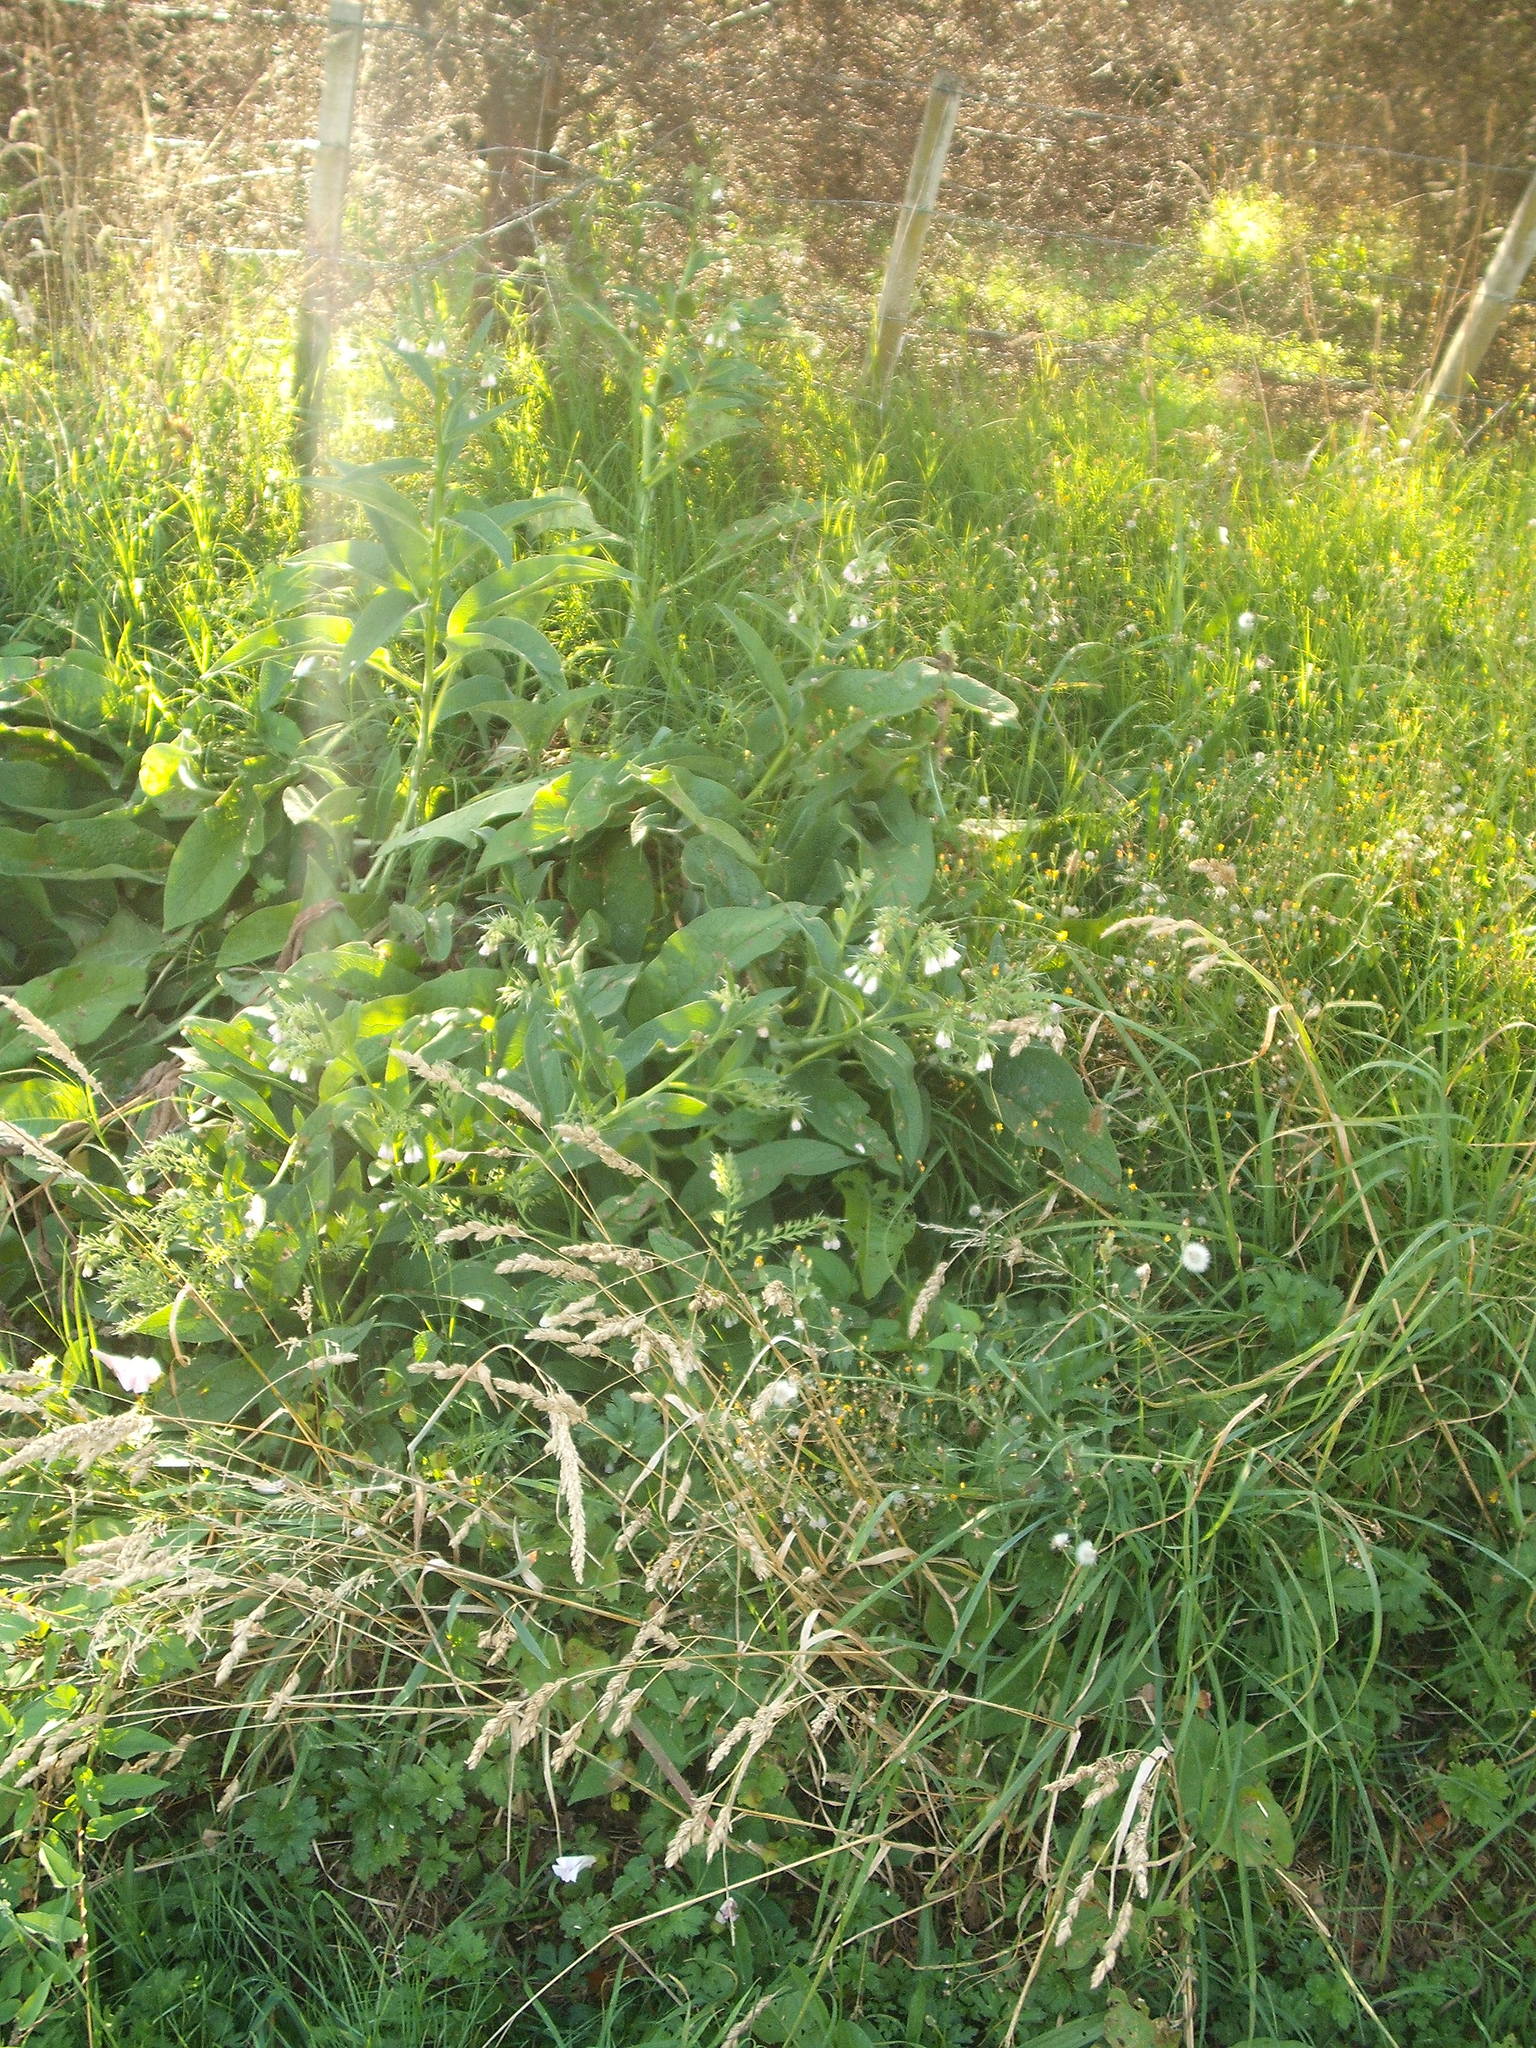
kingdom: Plantae
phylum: Tracheophyta
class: Magnoliopsida
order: Boraginales
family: Boraginaceae
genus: Symphytum
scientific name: Symphytum officinale
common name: Common comfrey
